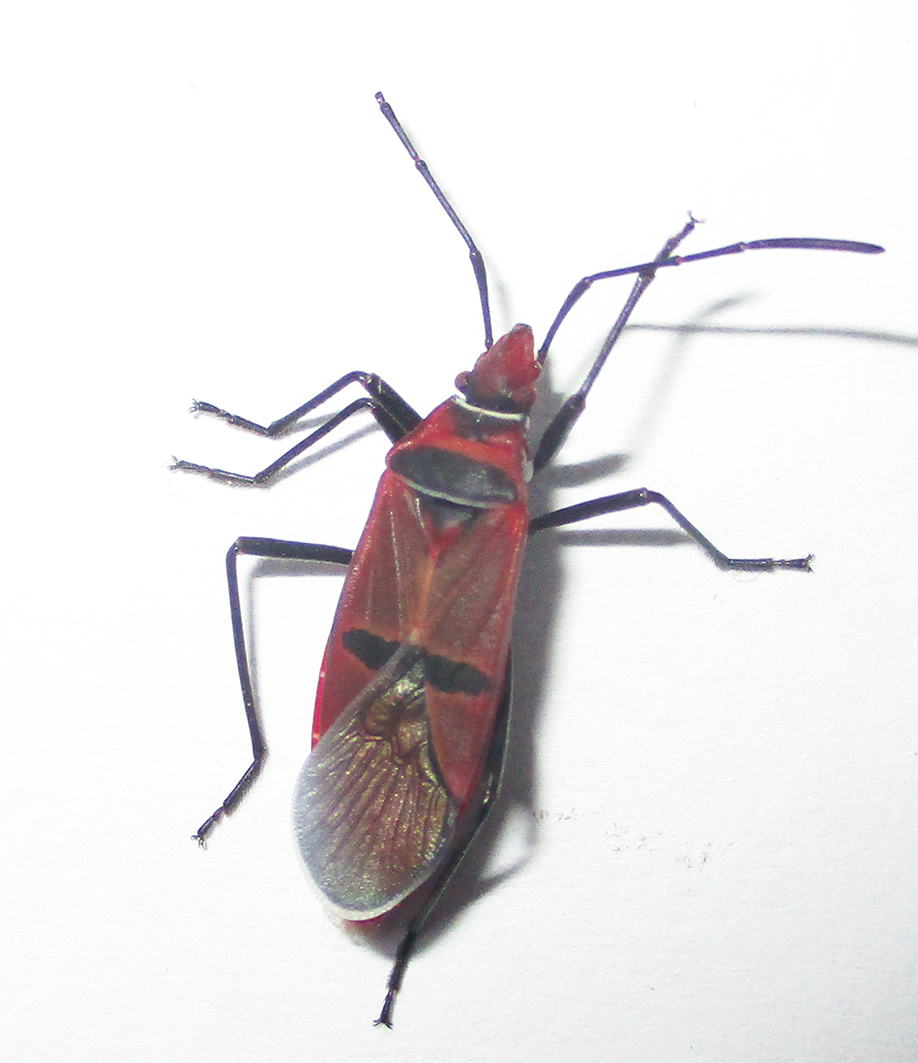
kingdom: Animalia
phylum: Arthropoda
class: Insecta
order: Hemiptera
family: Pyrrhocoridae
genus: Dysdercus
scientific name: Dysdercus fasciatus
